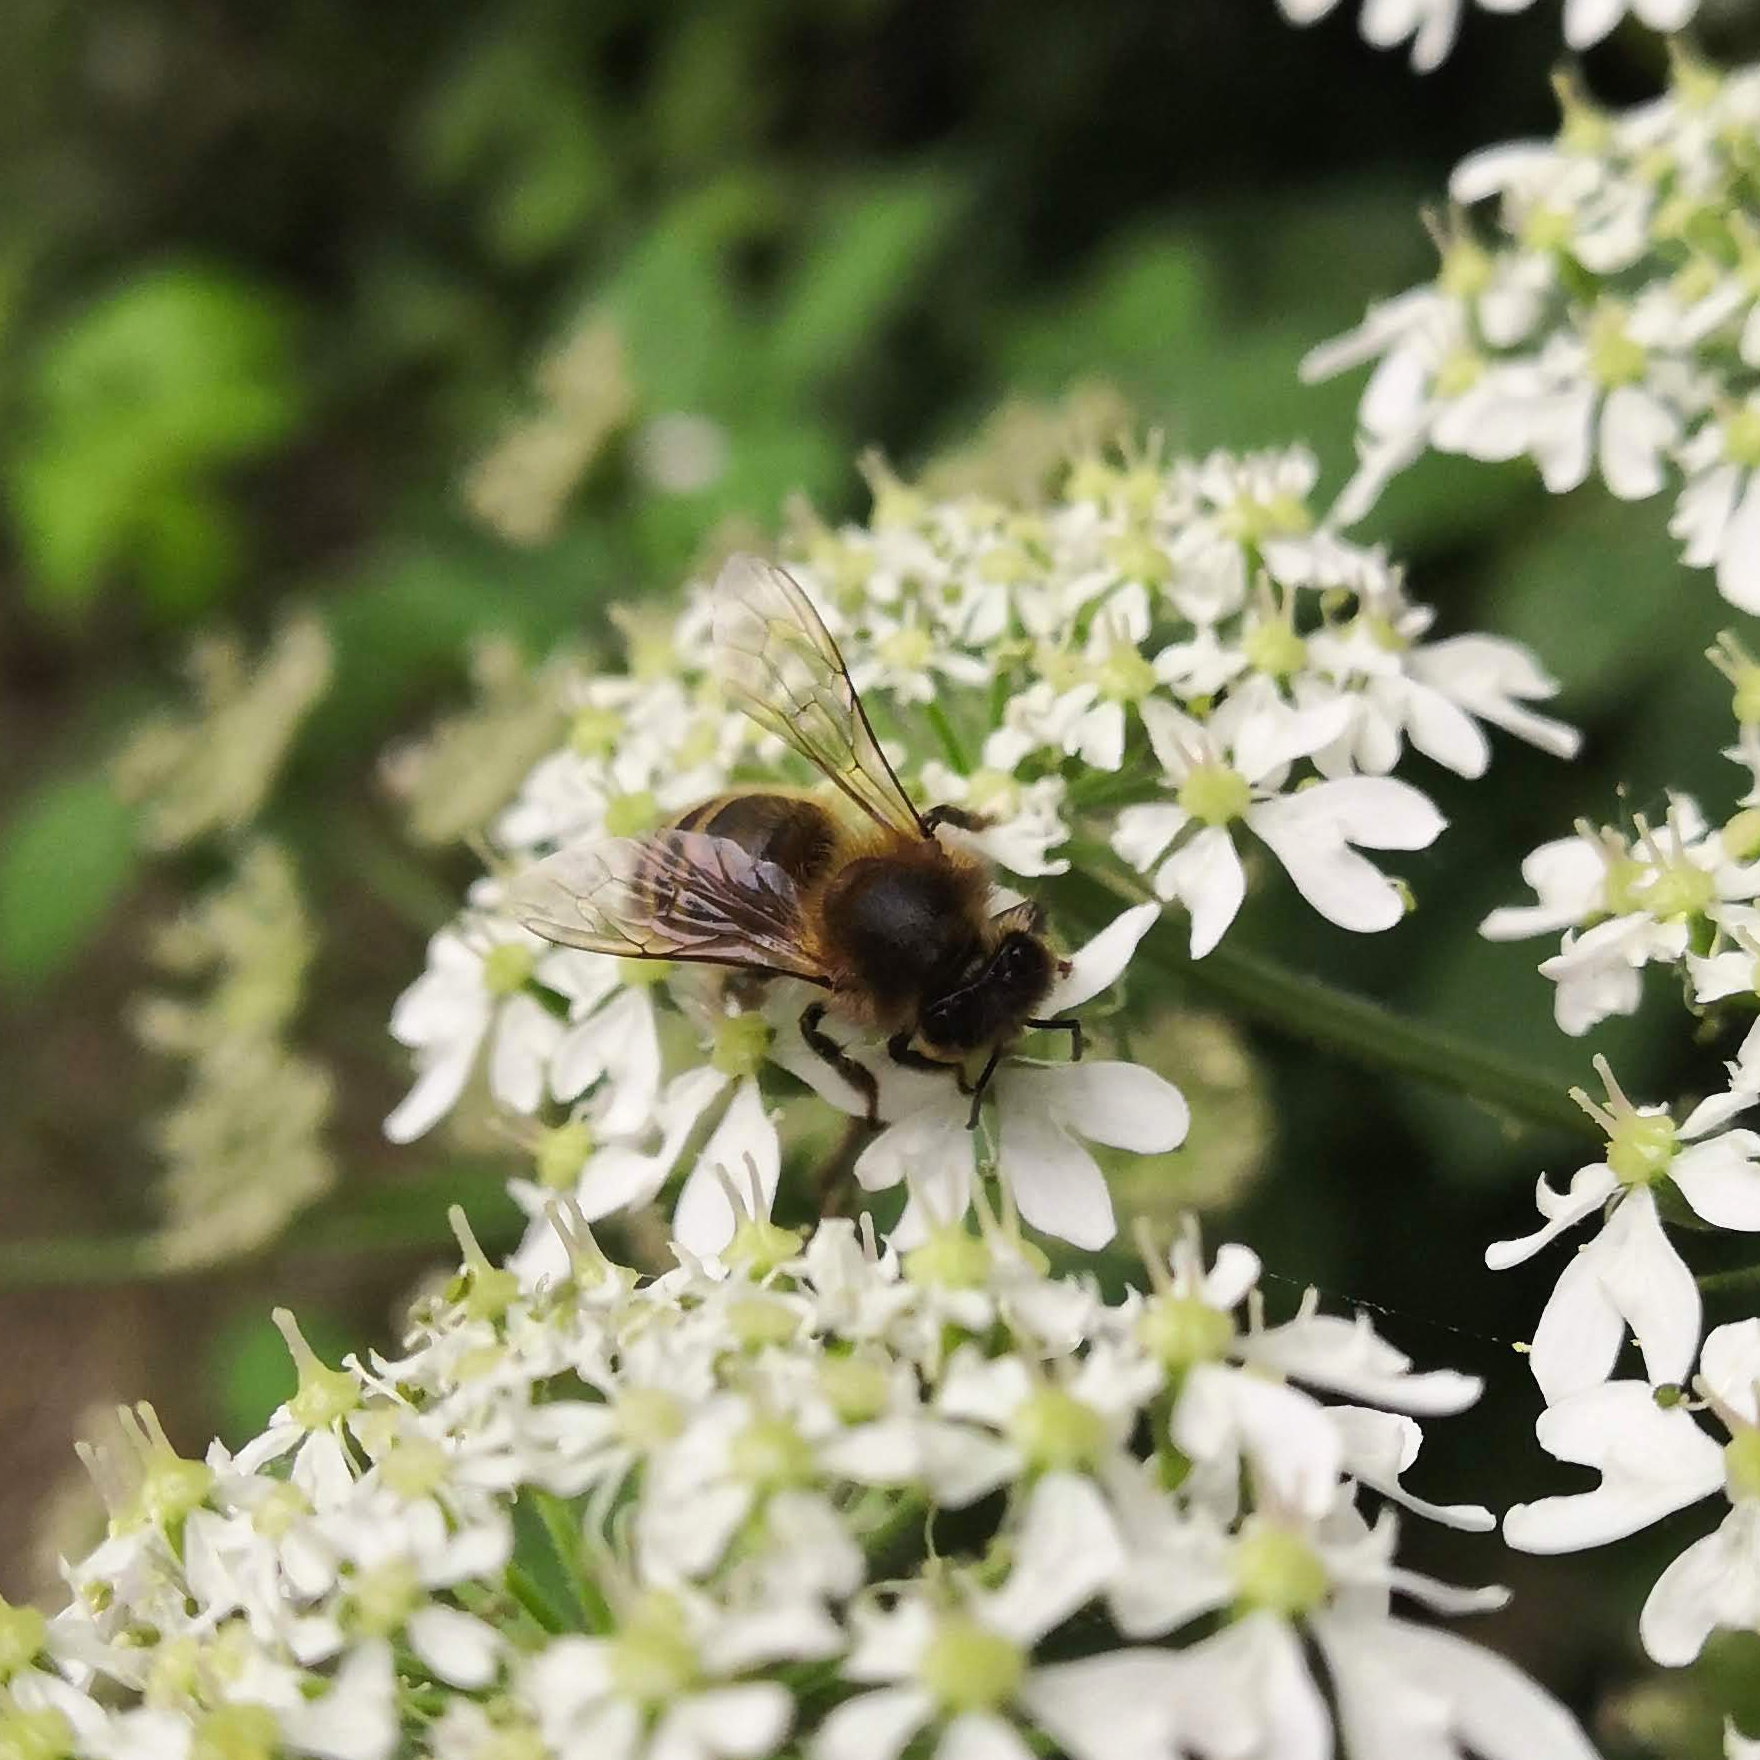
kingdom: Animalia
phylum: Arthropoda
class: Insecta
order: Hymenoptera
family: Apidae
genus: Apis
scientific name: Apis mellifera
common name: Honey bee
